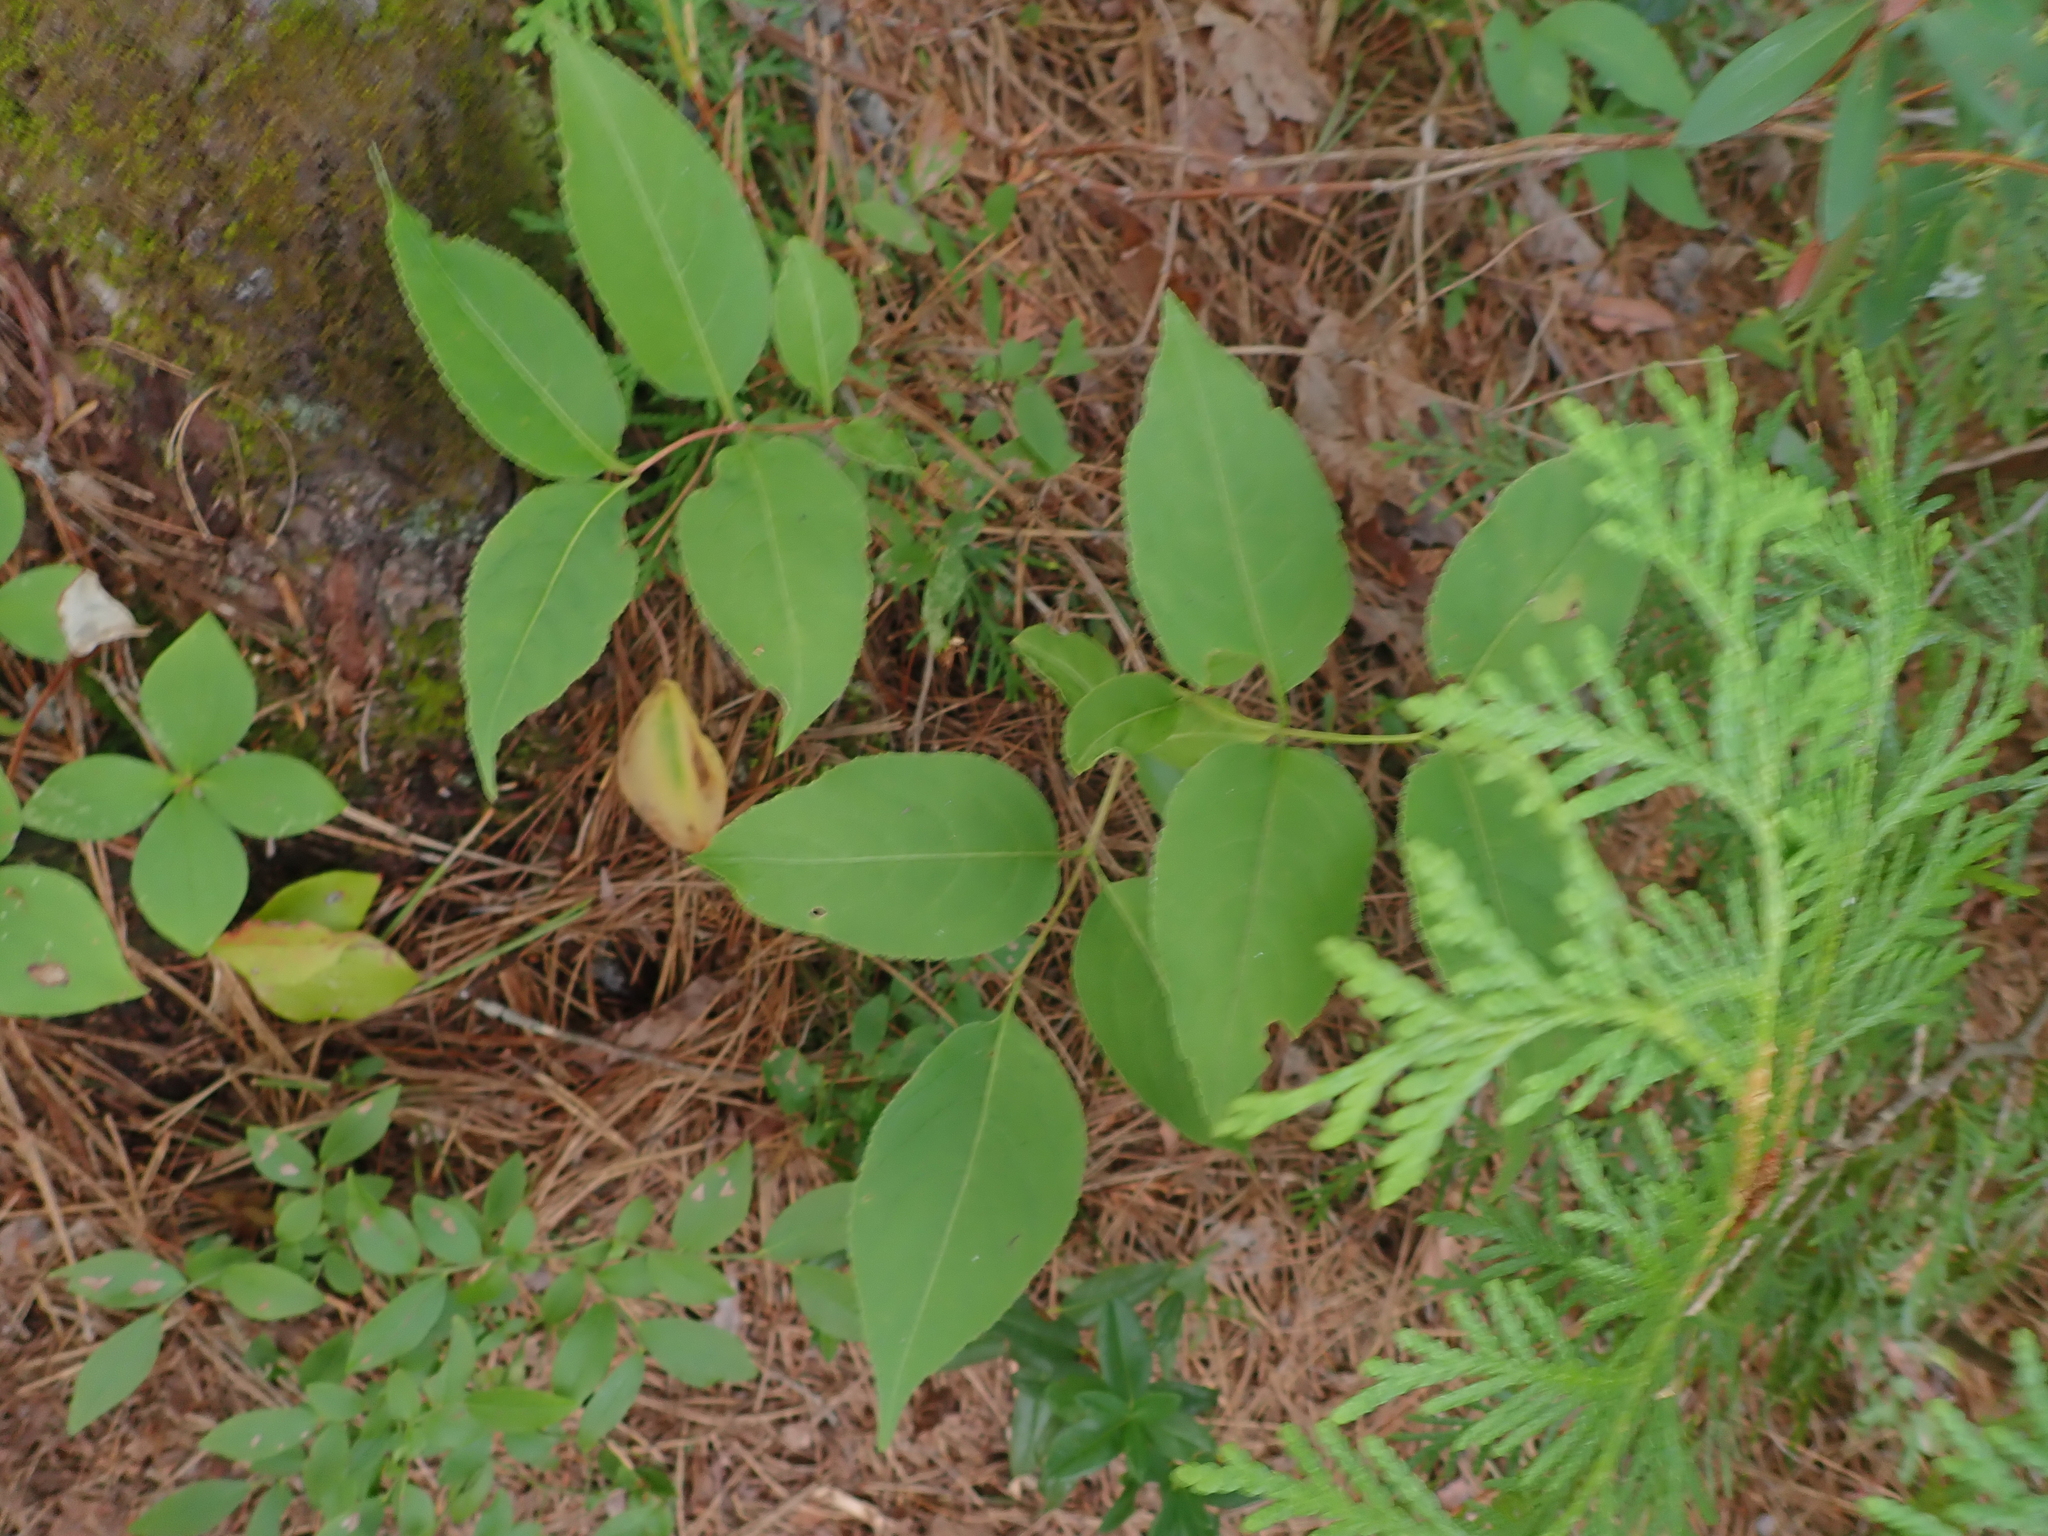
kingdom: Plantae
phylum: Tracheophyta
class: Magnoliopsida
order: Dipsacales
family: Caprifoliaceae
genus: Diervilla
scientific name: Diervilla lonicera
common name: Bush-honeysuckle
